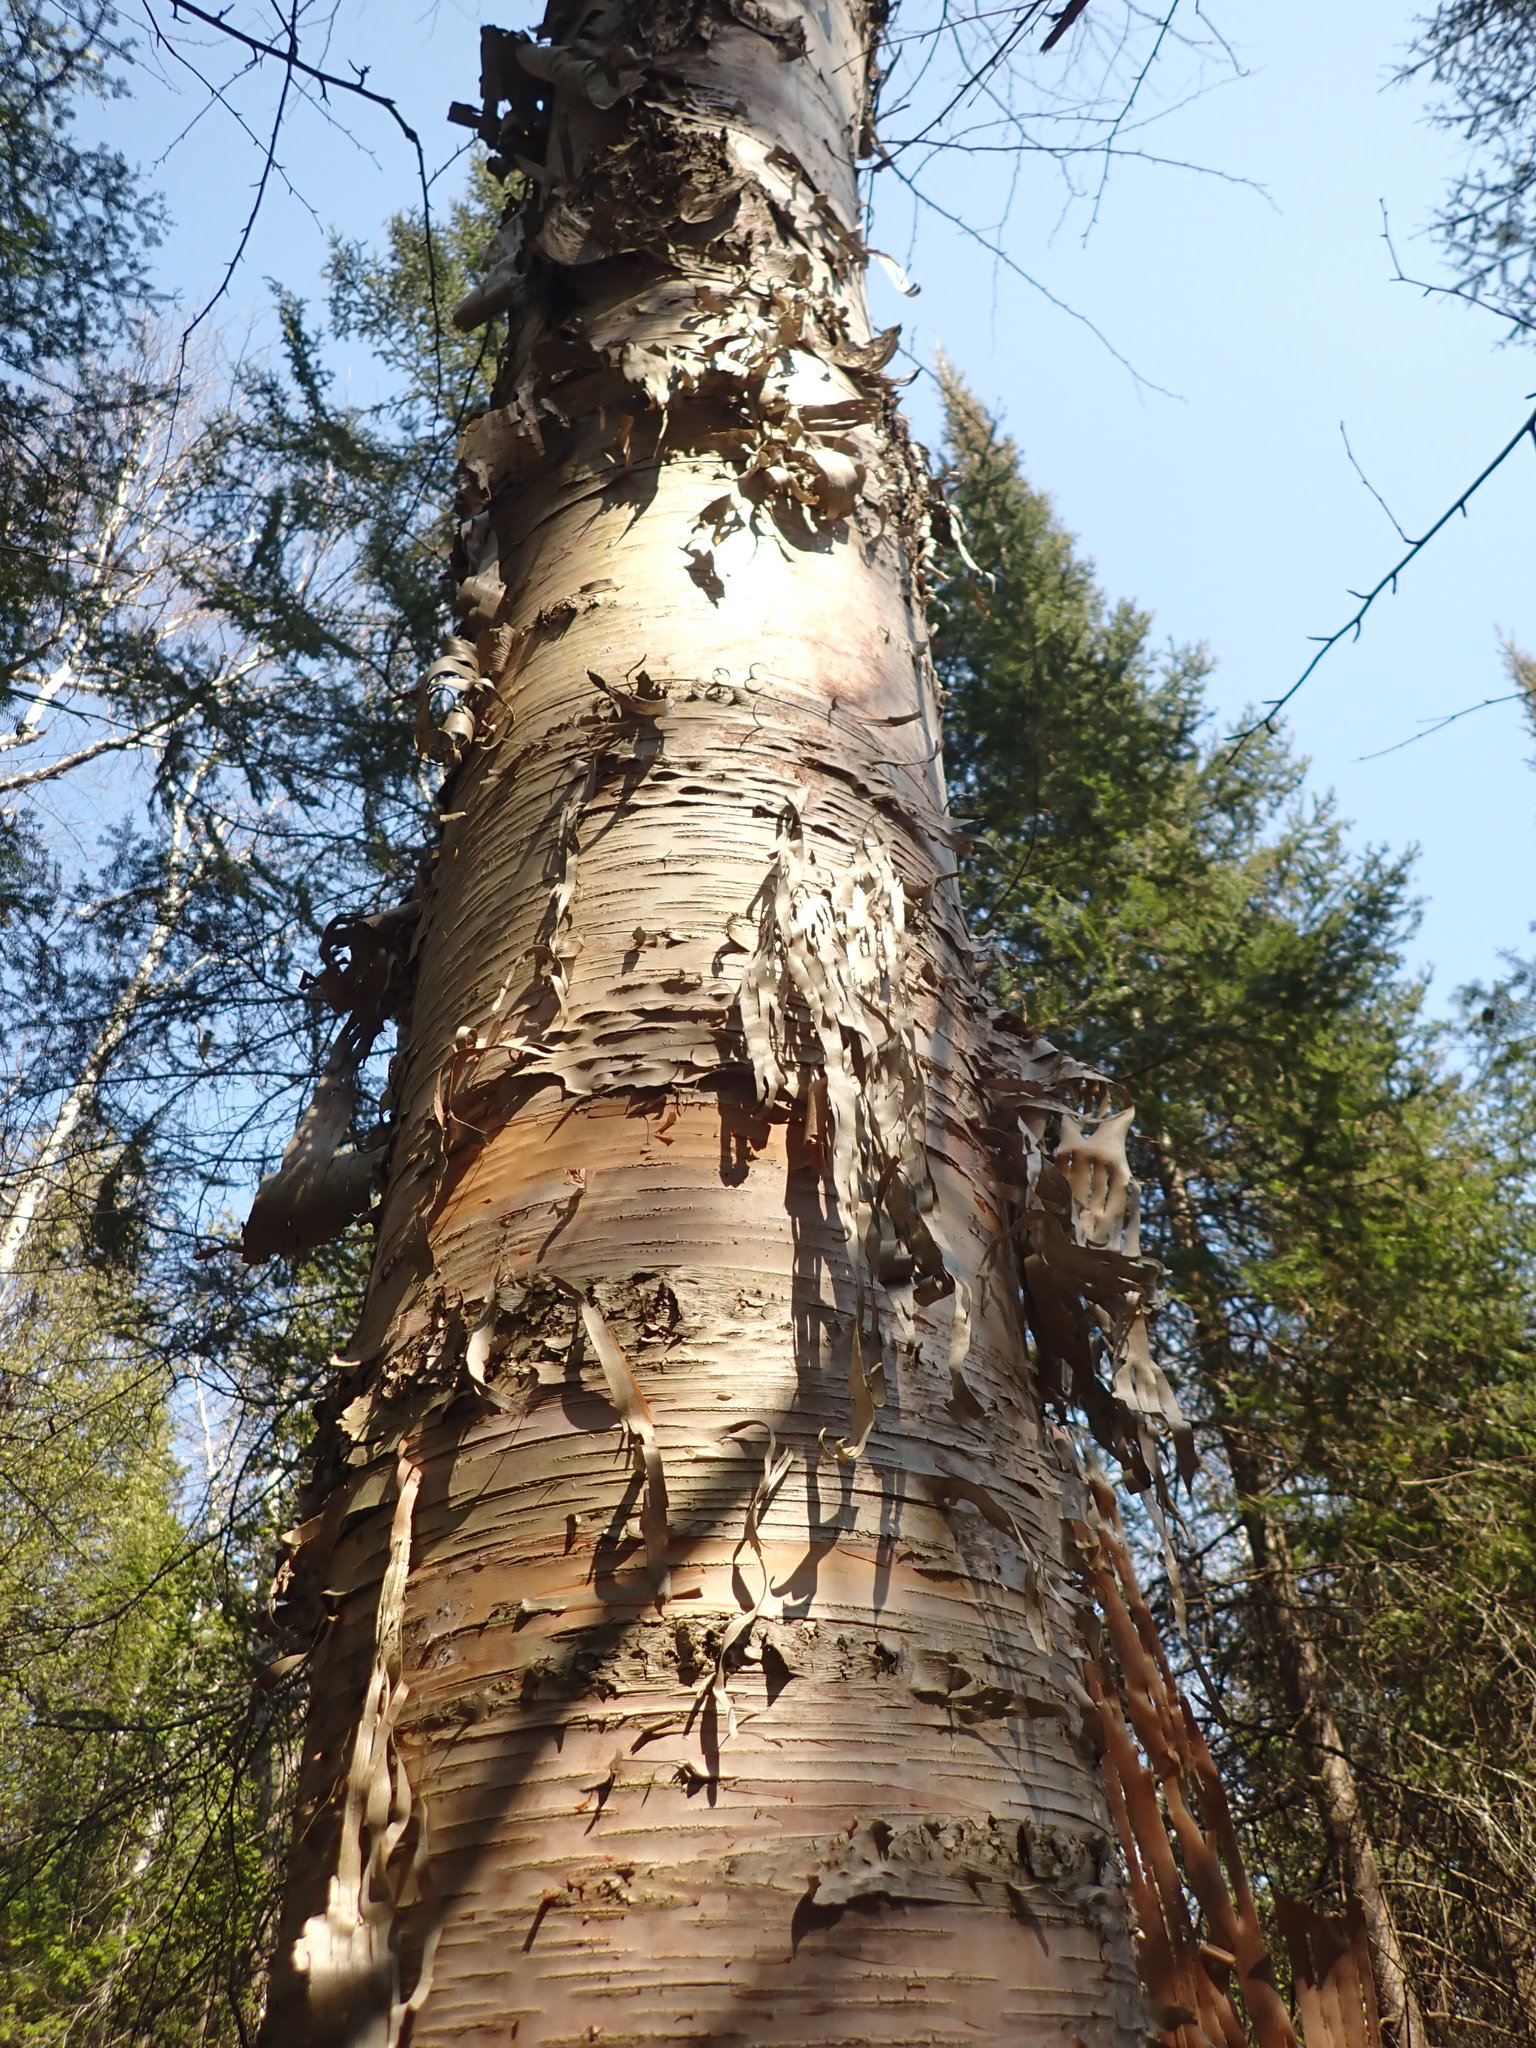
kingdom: Plantae
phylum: Tracheophyta
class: Magnoliopsida
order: Fagales
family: Betulaceae
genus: Betula
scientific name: Betula papyrifera
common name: Paper birch
